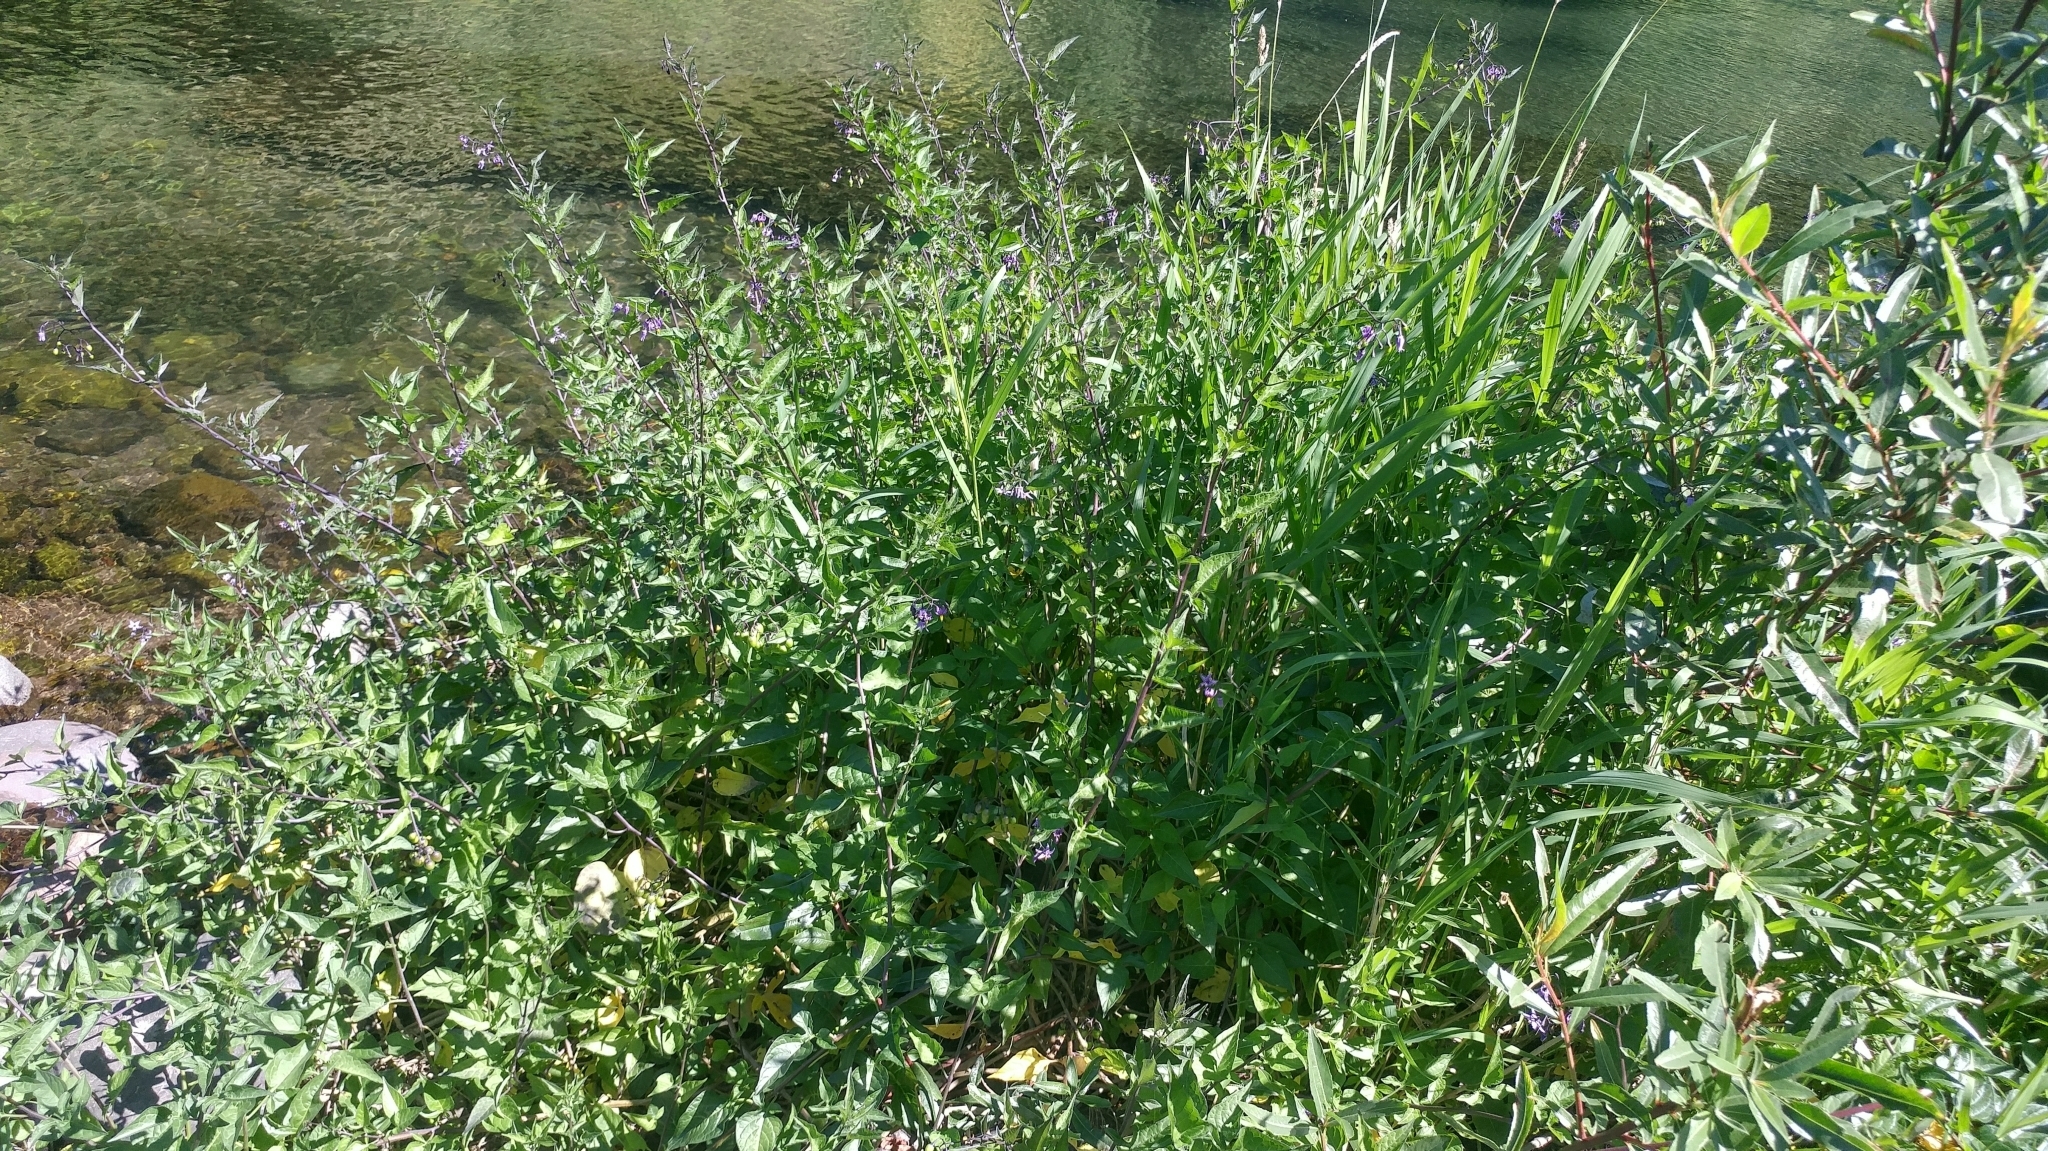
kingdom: Plantae
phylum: Tracheophyta
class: Magnoliopsida
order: Solanales
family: Solanaceae
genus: Solanum
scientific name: Solanum dulcamara
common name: Climbing nightshade
